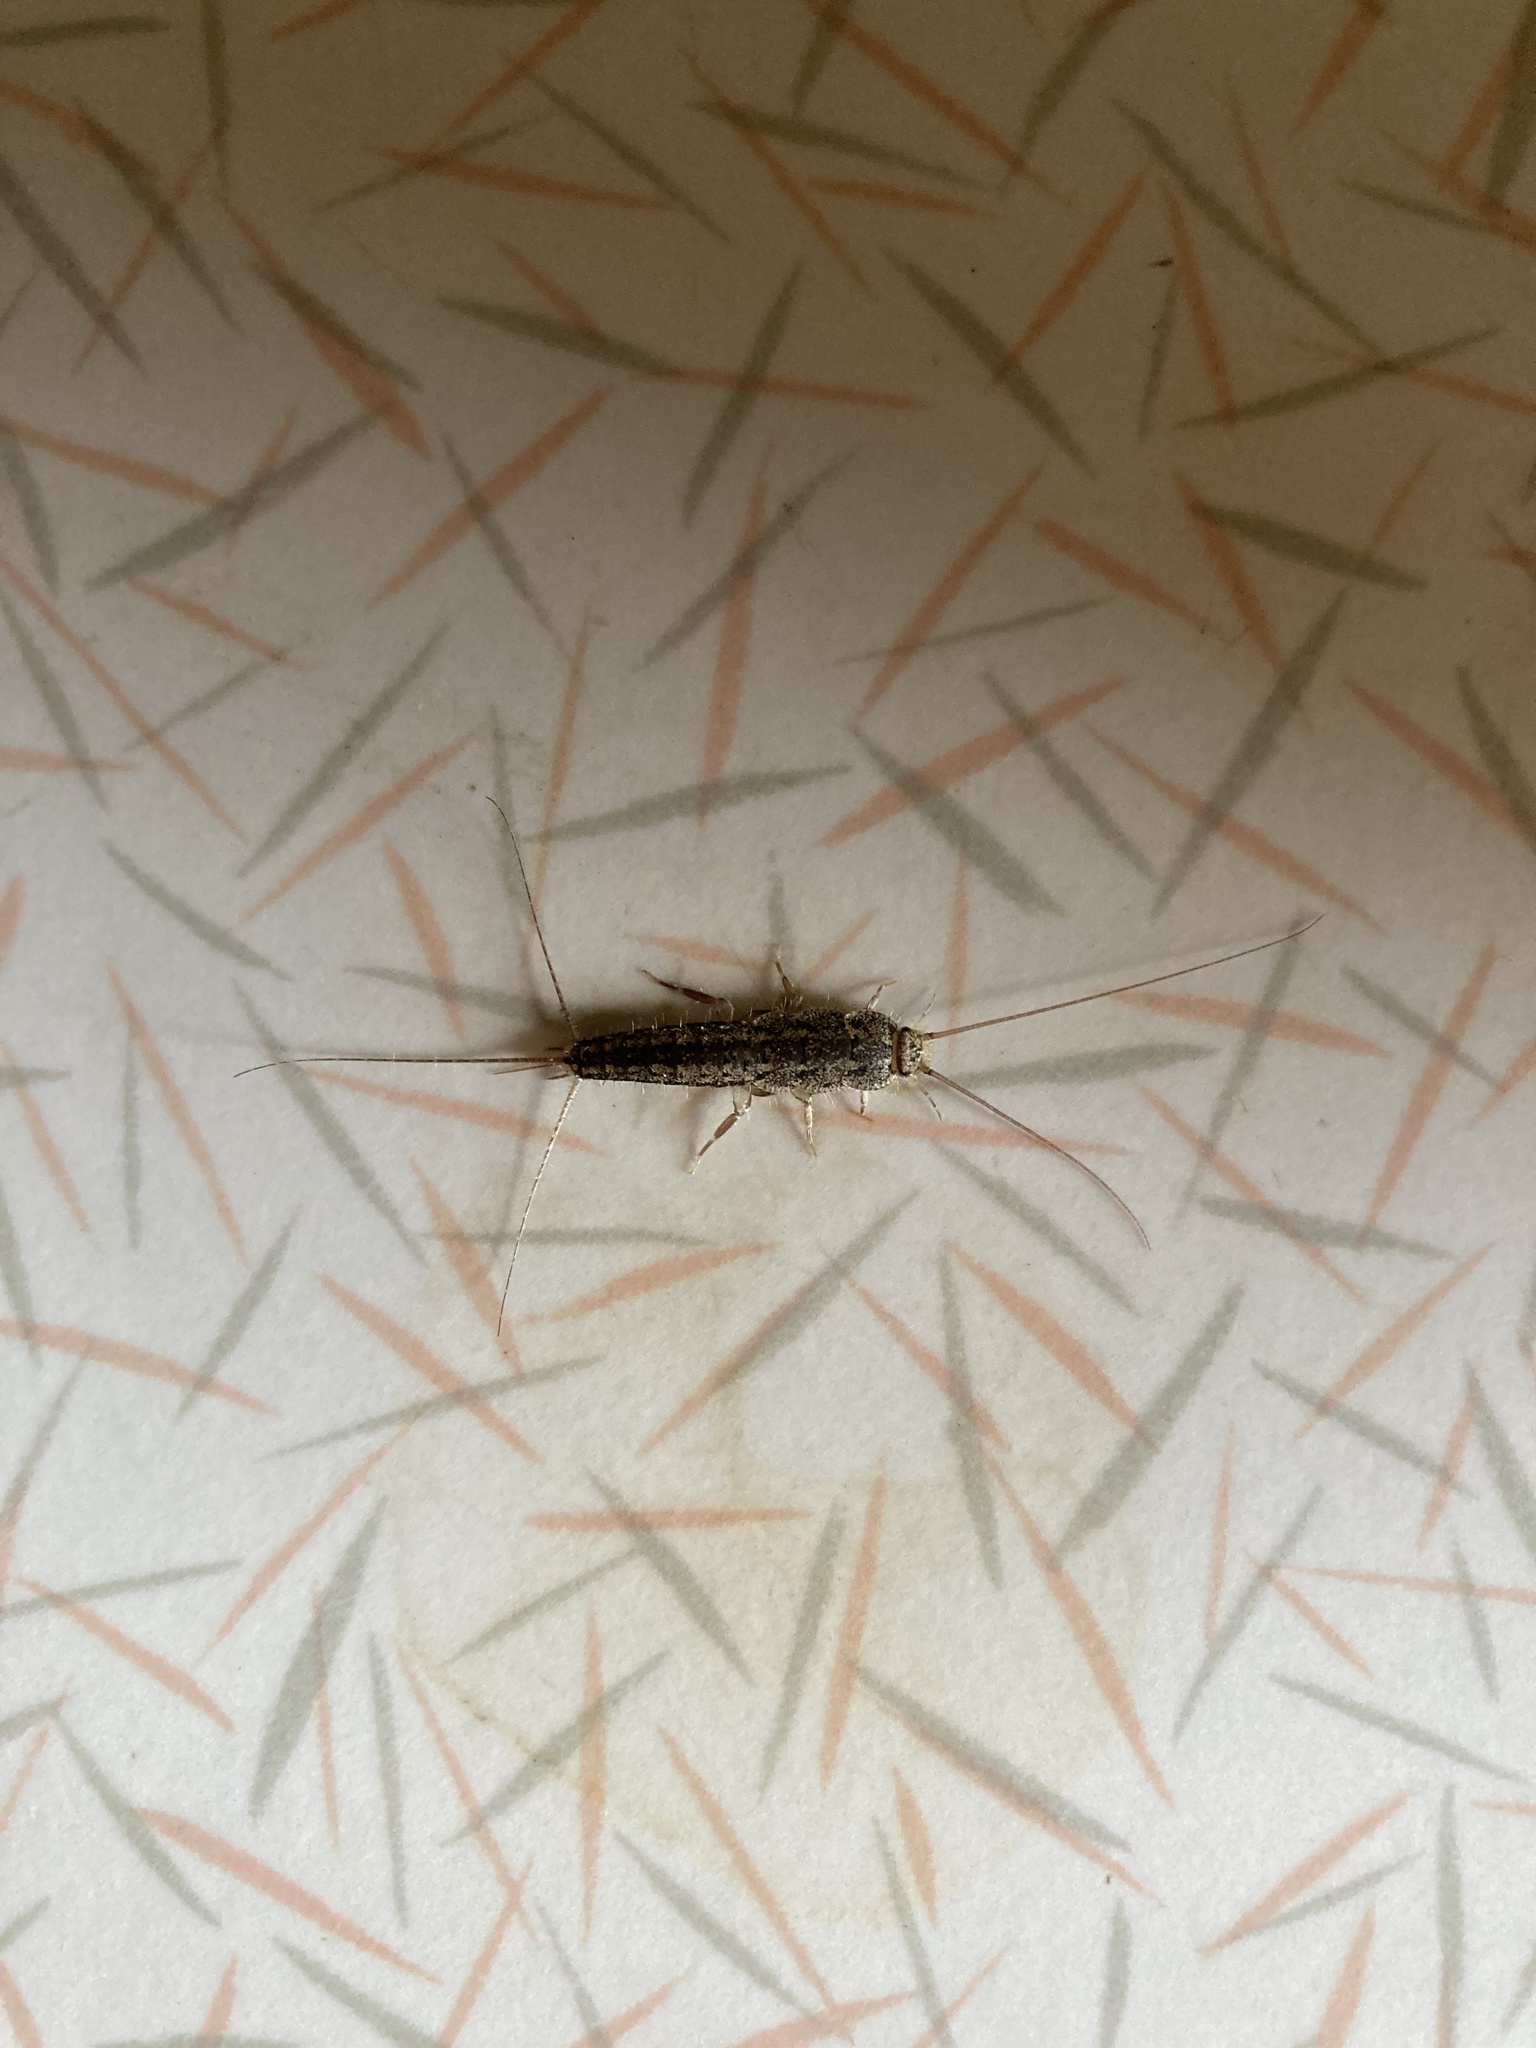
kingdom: Animalia
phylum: Arthropoda
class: Insecta
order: Zygentoma
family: Lepismatidae
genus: Ctenolepisma
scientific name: Ctenolepisma lineata
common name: Four-lined silverfish
